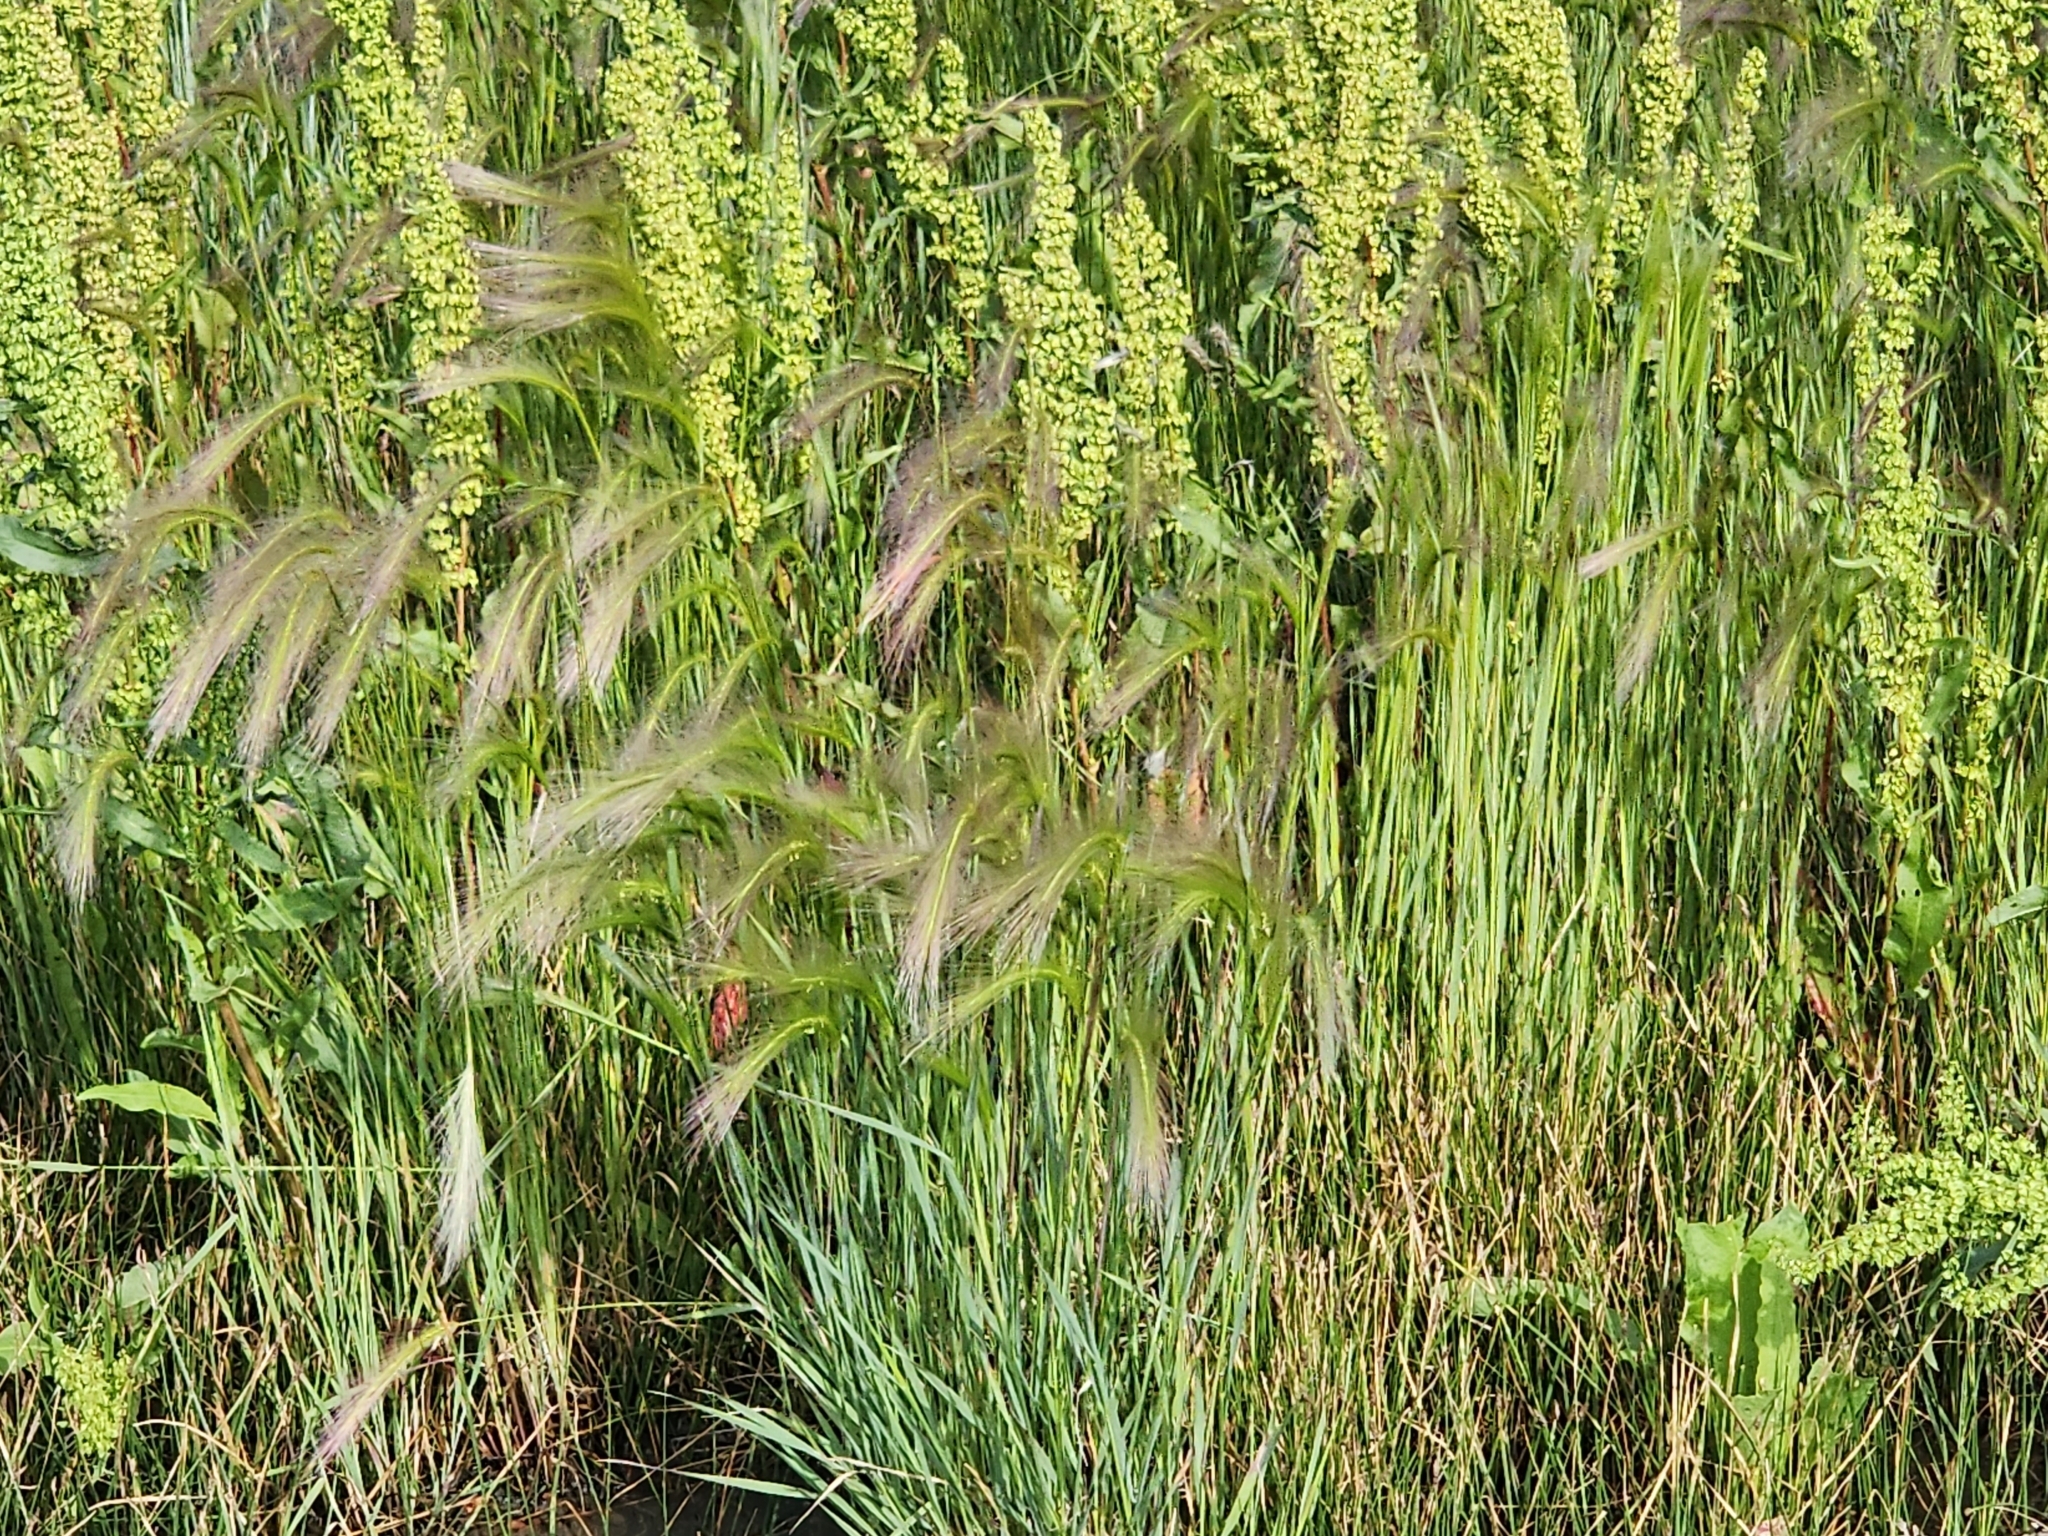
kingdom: Plantae
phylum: Tracheophyta
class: Liliopsida
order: Poales
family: Poaceae
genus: Hordeum
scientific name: Hordeum jubatum
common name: Foxtail barley
